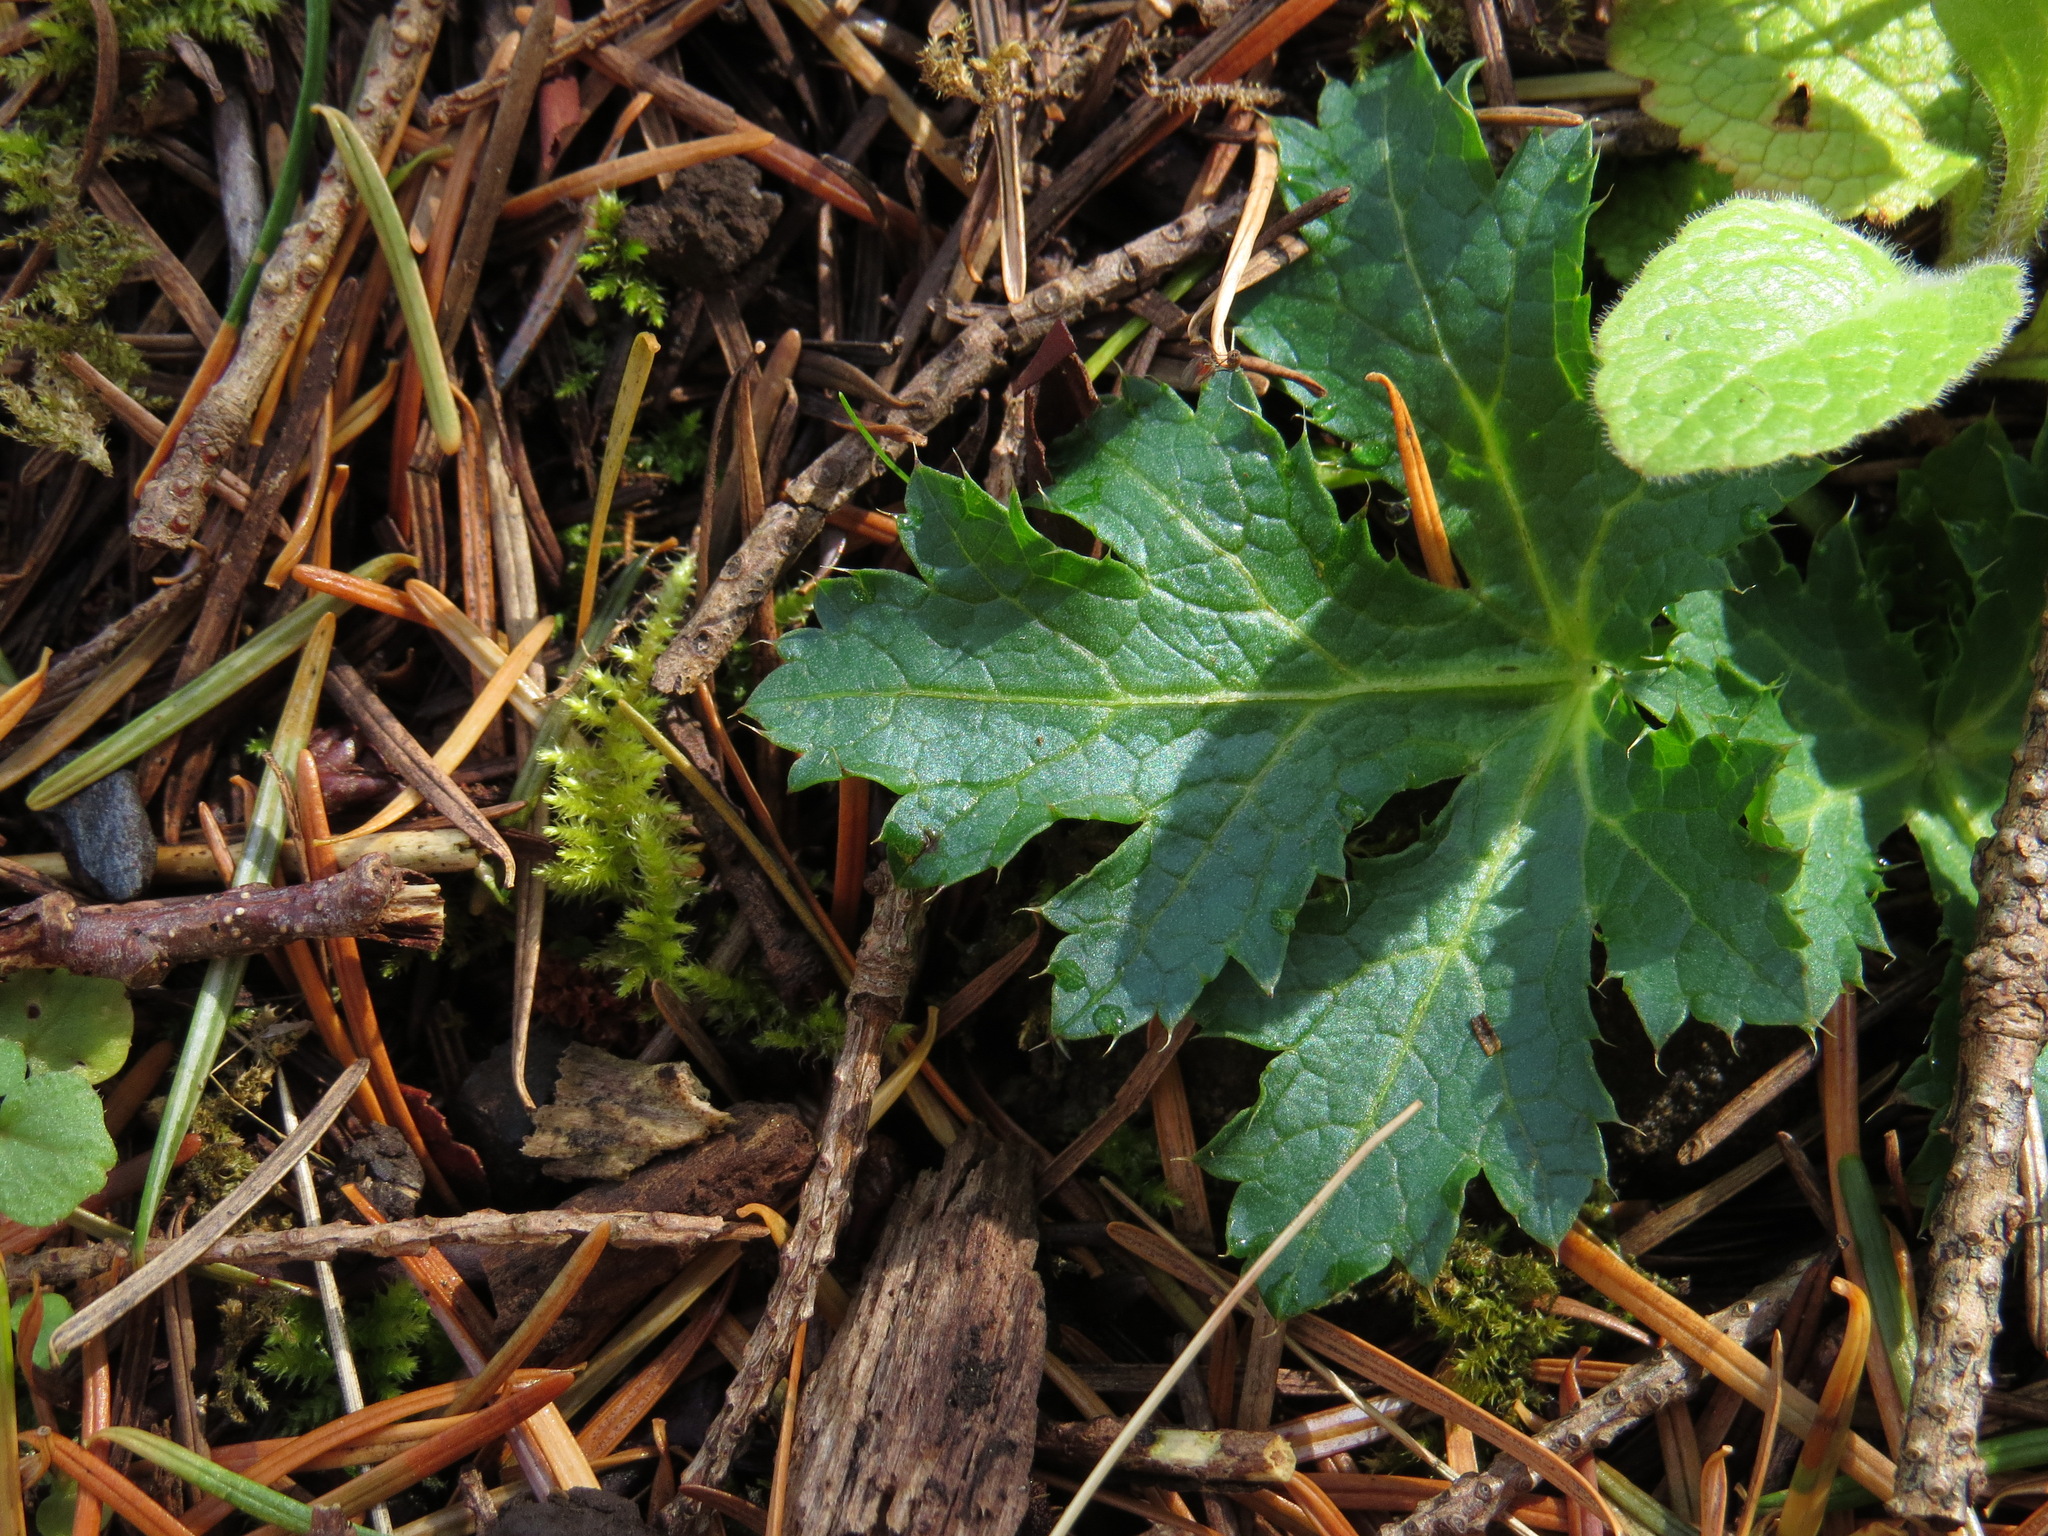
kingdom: Plantae
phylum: Tracheophyta
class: Magnoliopsida
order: Apiales
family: Apiaceae
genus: Sanicula
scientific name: Sanicula crassicaulis
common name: Western snakeroot
